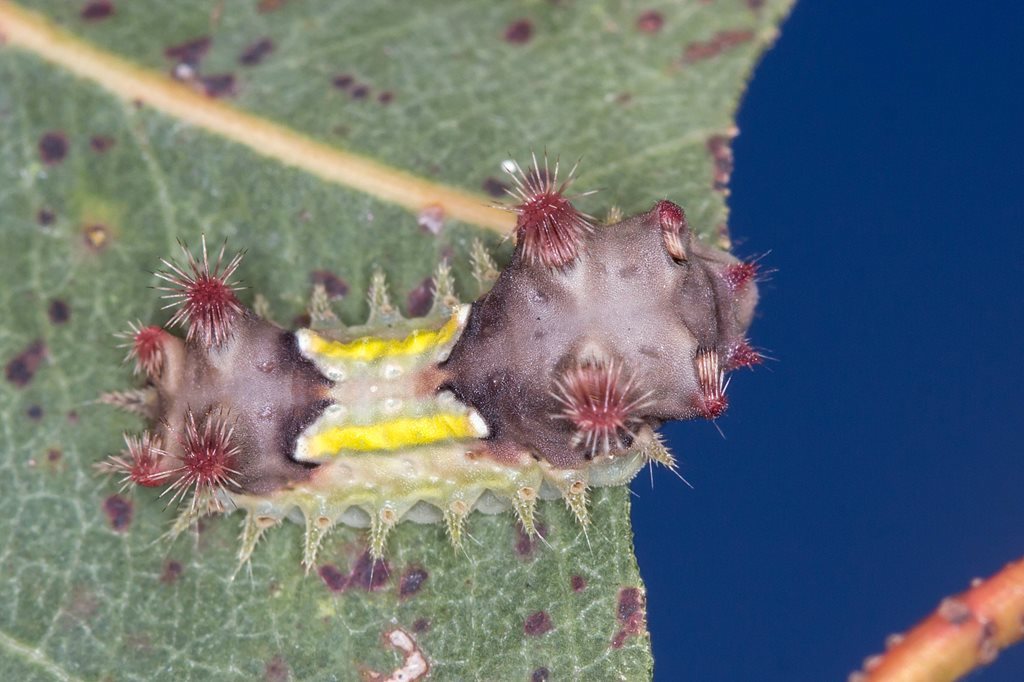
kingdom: Animalia
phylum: Arthropoda
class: Insecta
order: Lepidoptera
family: Limacodidae
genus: Doratifera
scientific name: Doratifera vulnerans
